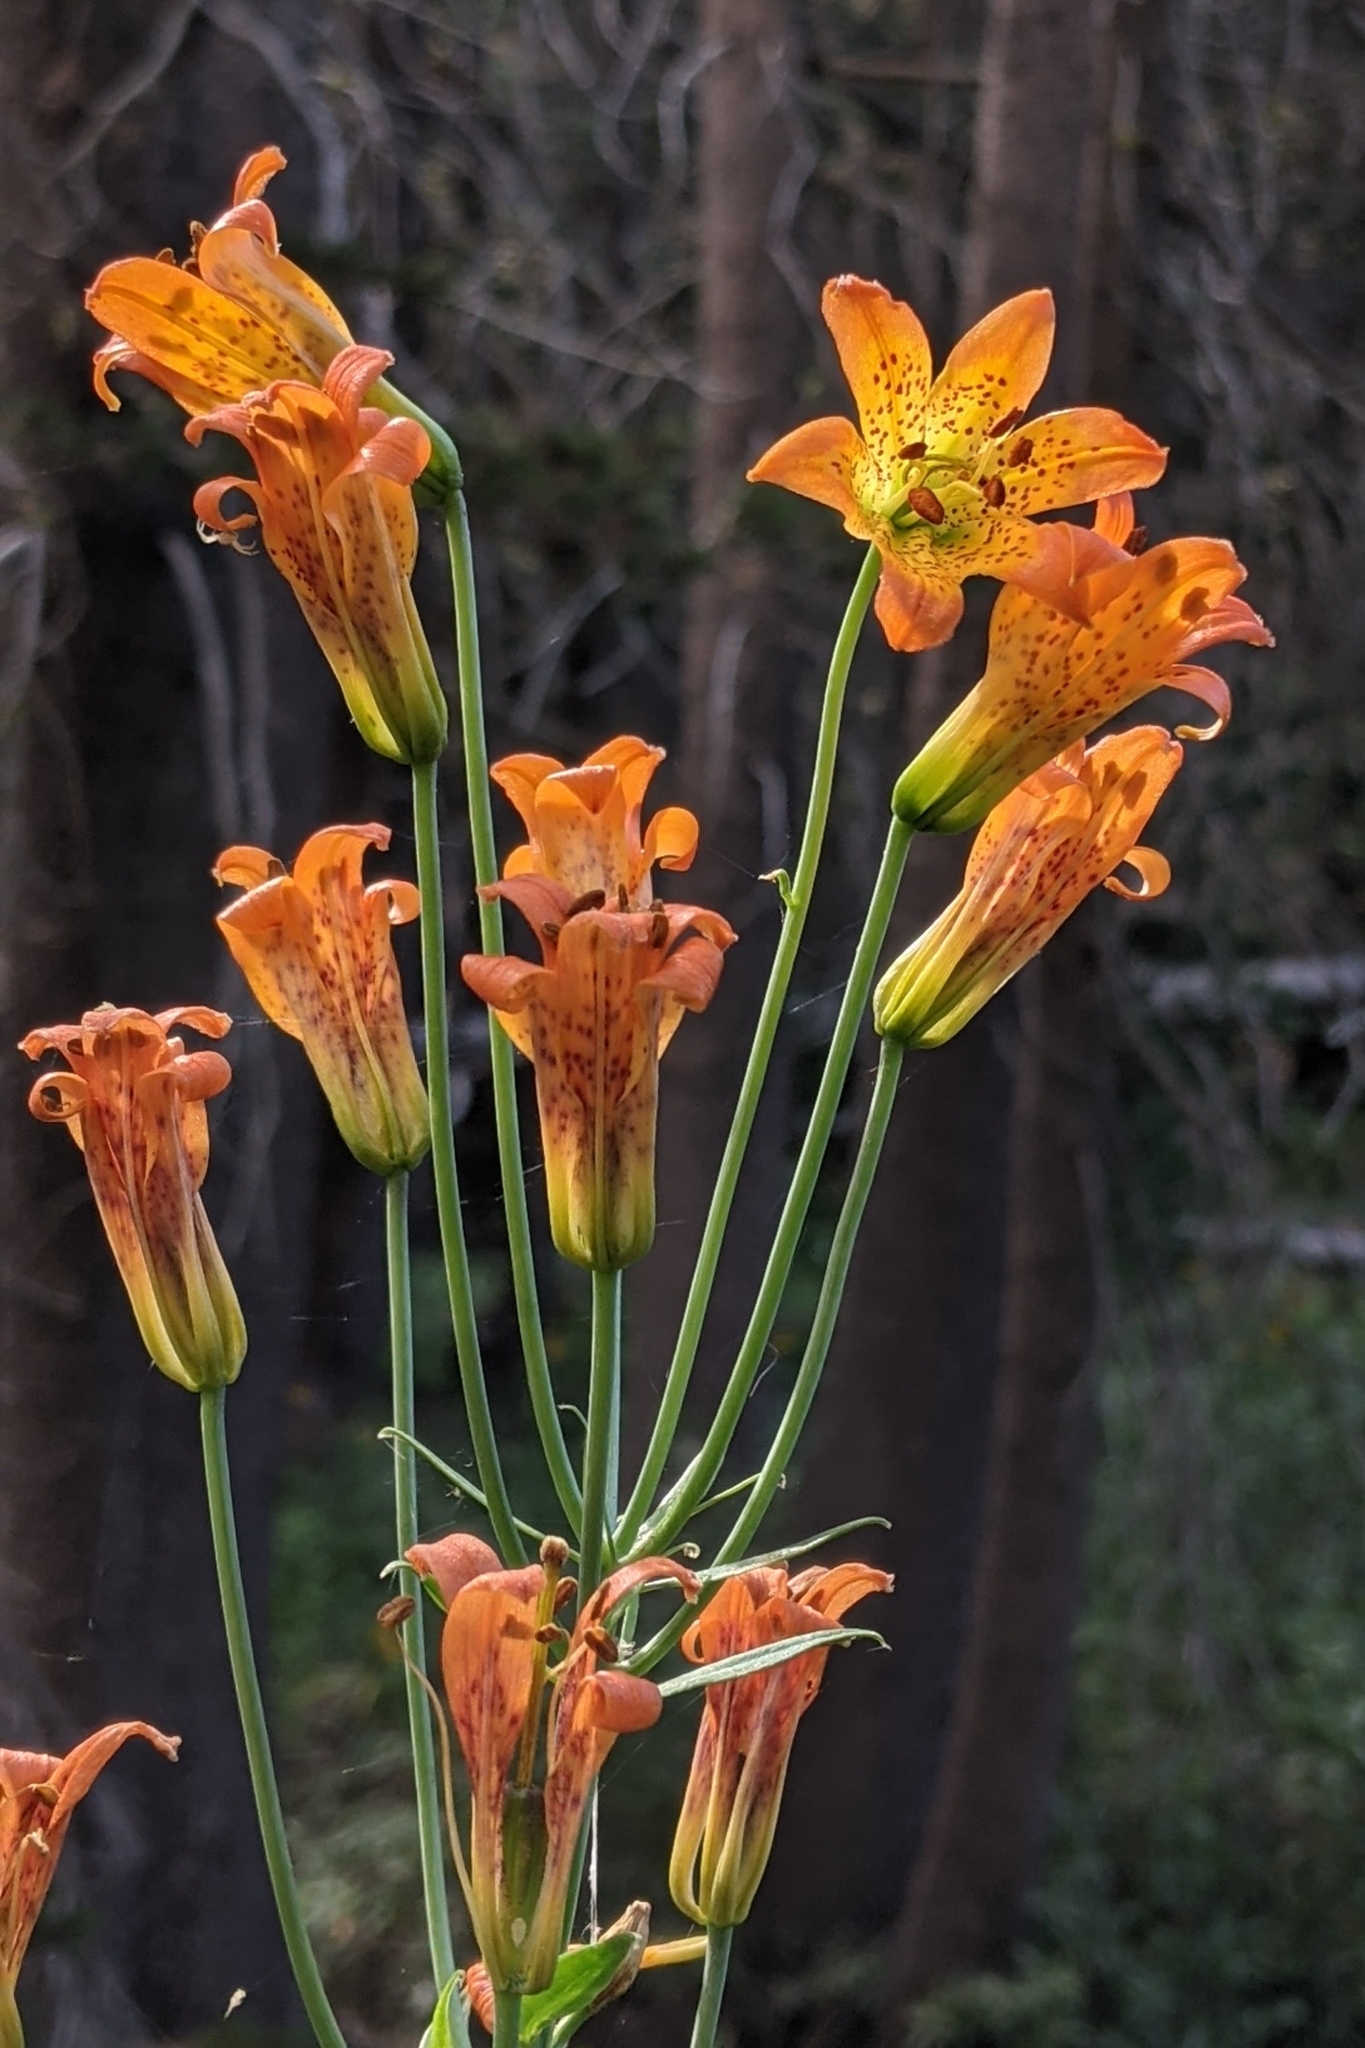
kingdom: Plantae
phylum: Tracheophyta
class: Liliopsida
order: Liliales
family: Liliaceae
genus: Lilium
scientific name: Lilium parvum
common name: Alpine lily
